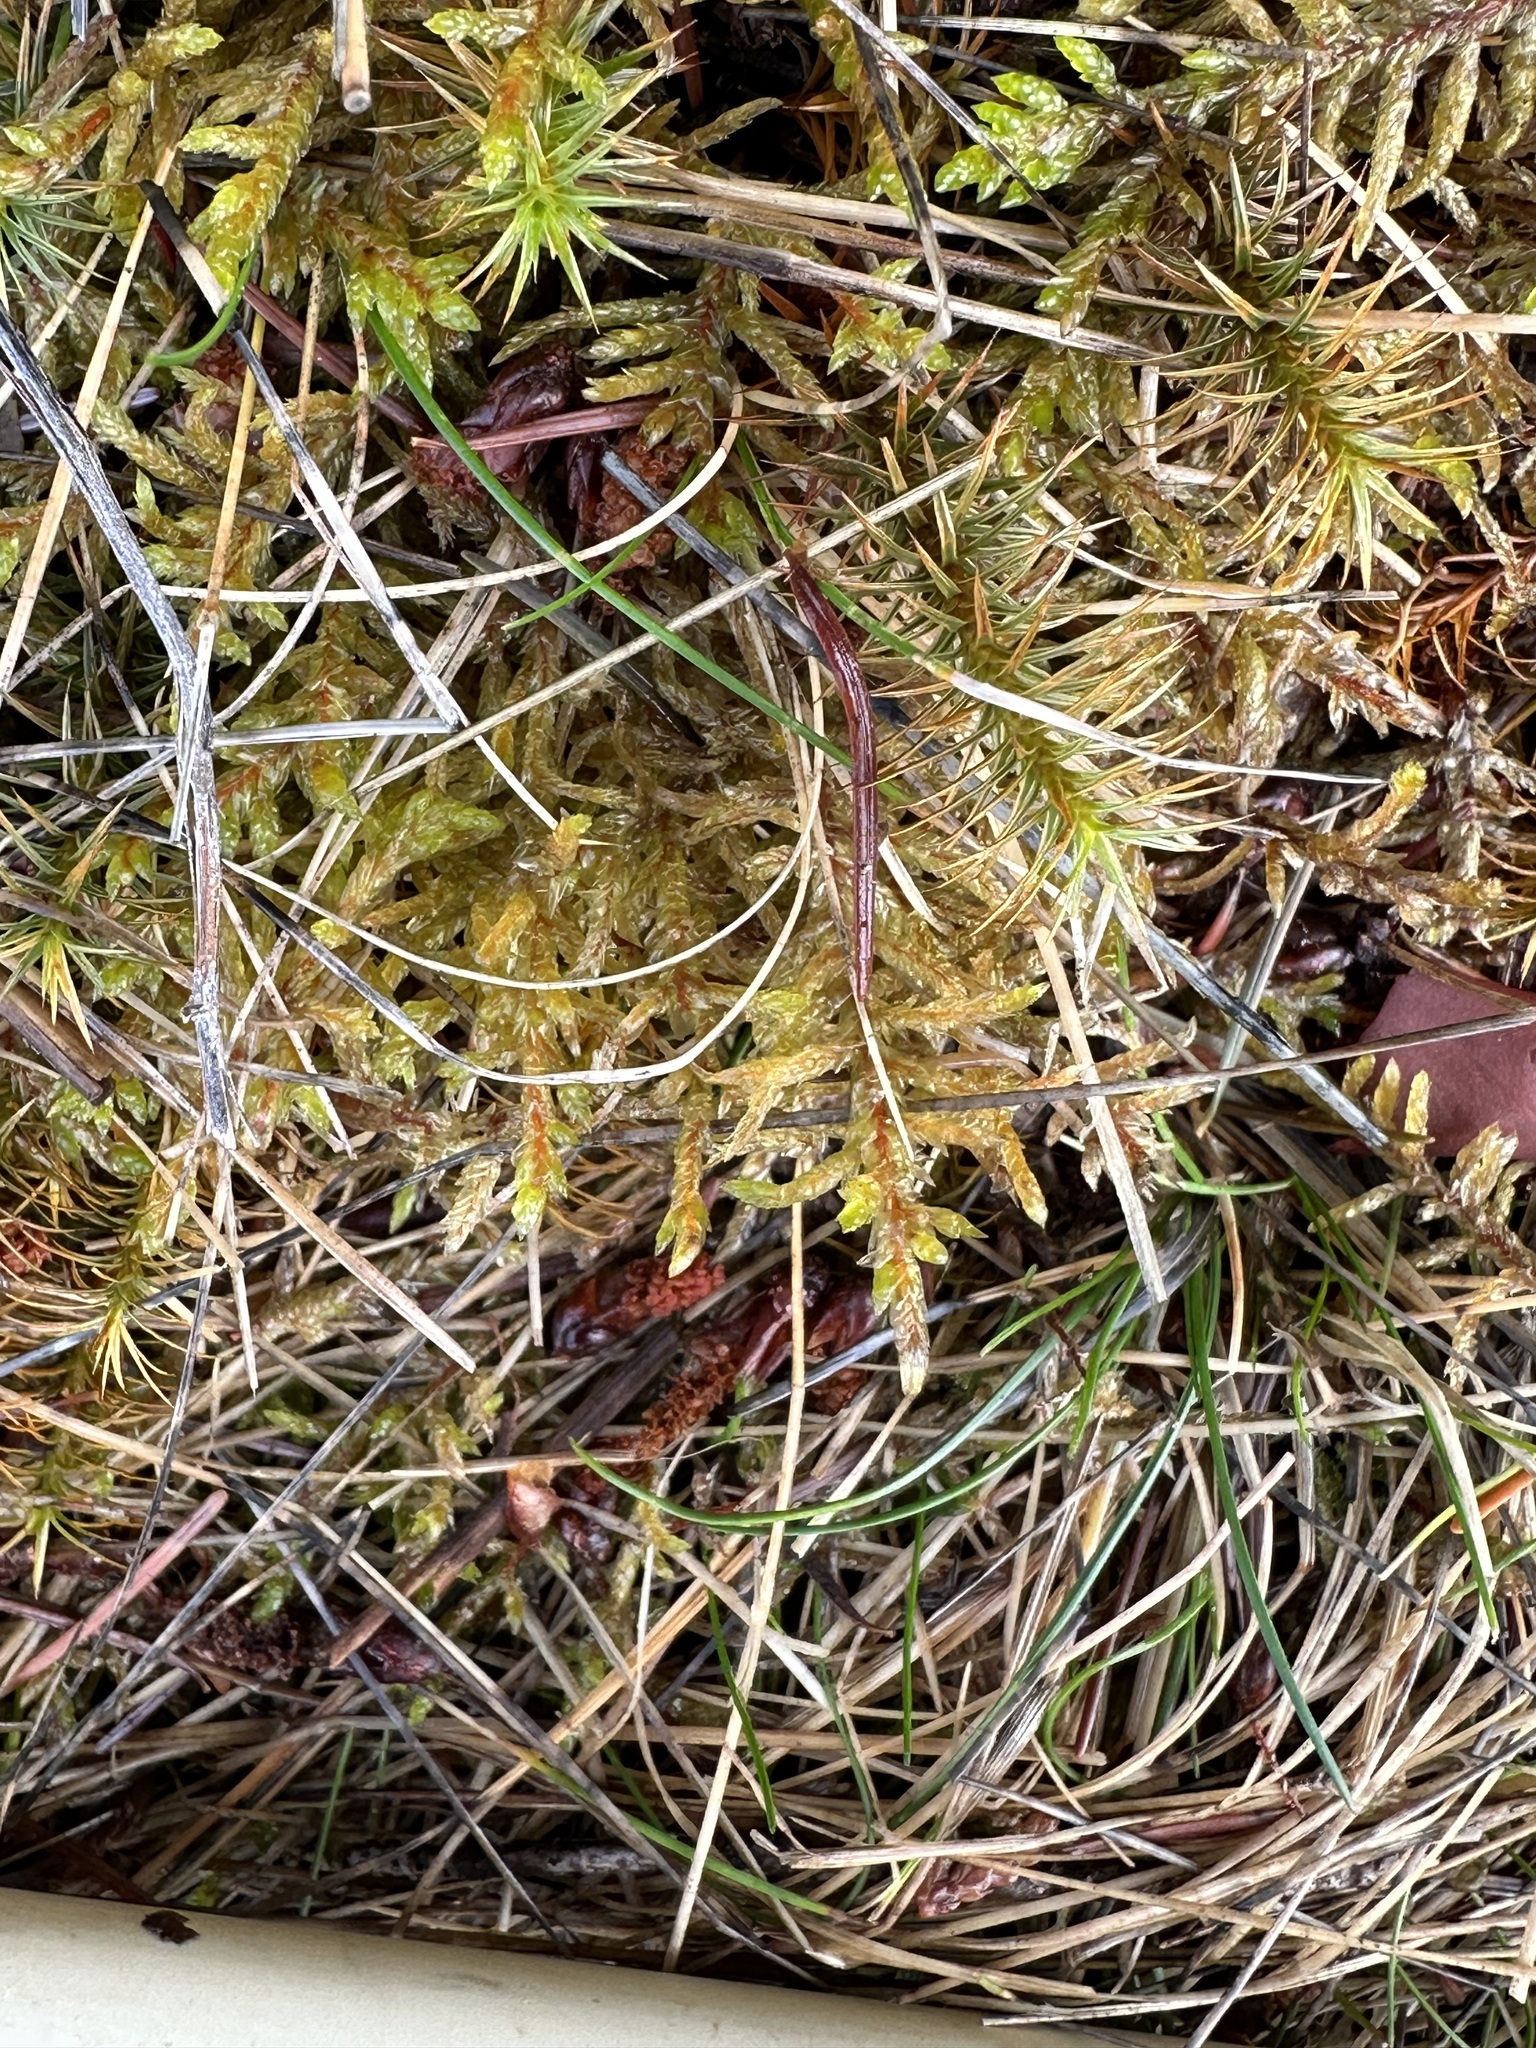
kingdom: Plantae
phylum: Bryophyta
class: Bryopsida
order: Hypnales
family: Hylocomiaceae
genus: Pleurozium
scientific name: Pleurozium schreberi
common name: Red-stemmed feather moss
